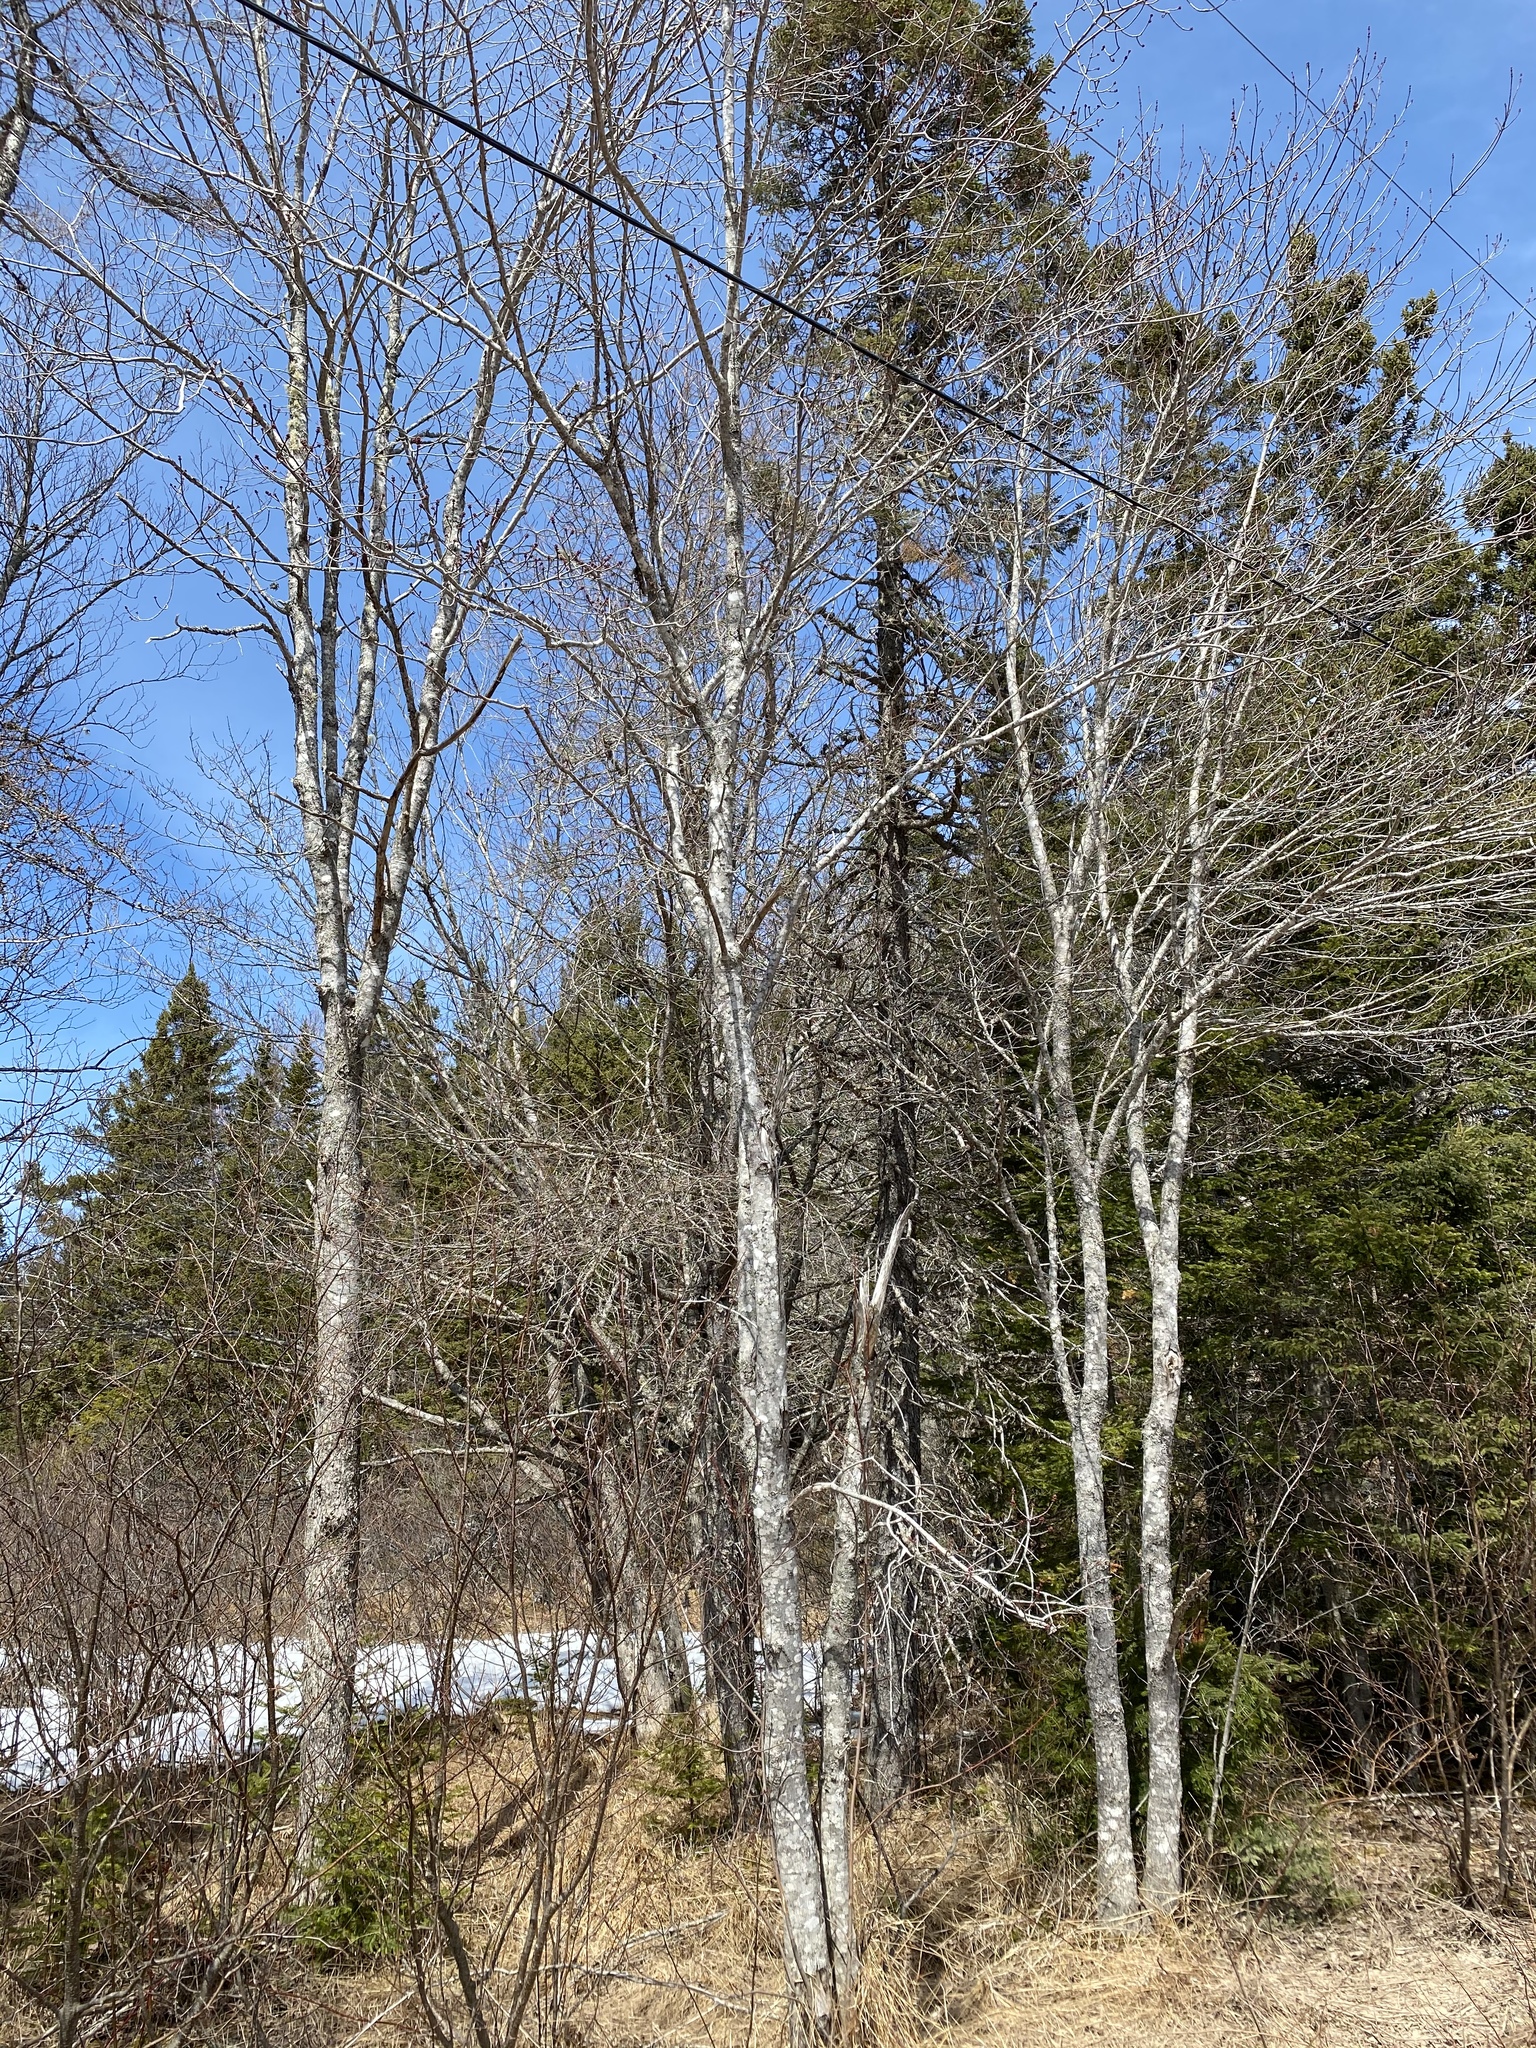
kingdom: Plantae
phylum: Tracheophyta
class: Magnoliopsida
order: Sapindales
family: Sapindaceae
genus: Acer
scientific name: Acer rubrum
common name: Red maple
